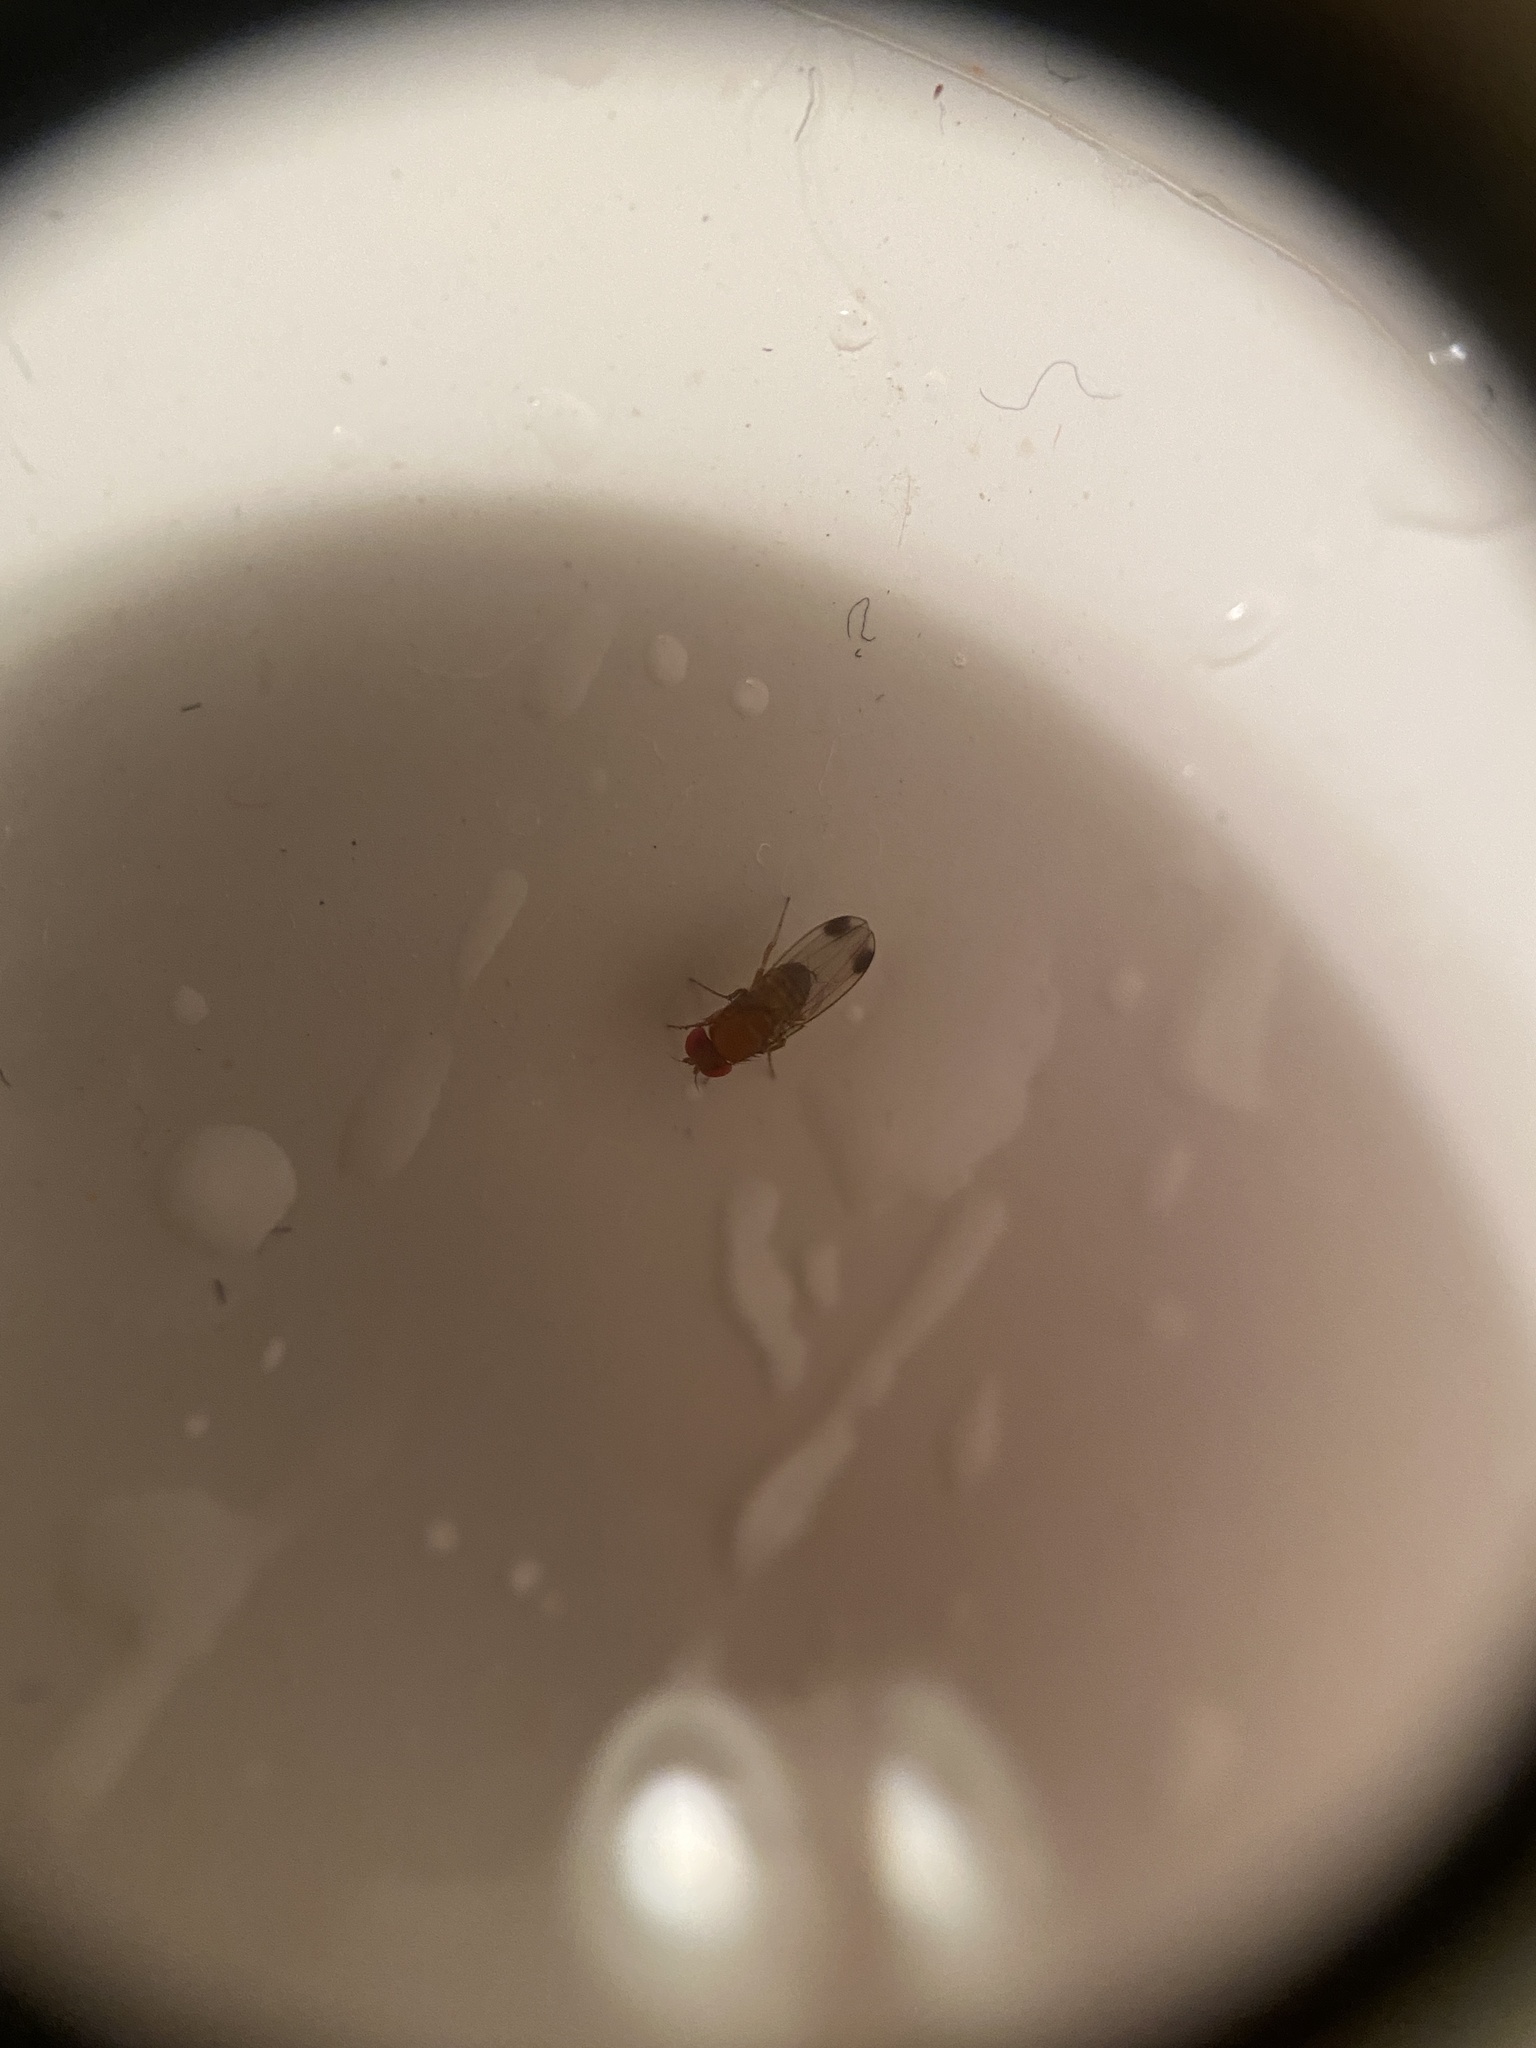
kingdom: Animalia
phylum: Arthropoda
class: Insecta
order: Diptera
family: Drosophilidae
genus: Drosophila
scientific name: Drosophila suzukii
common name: Spotted-wing drosophila
